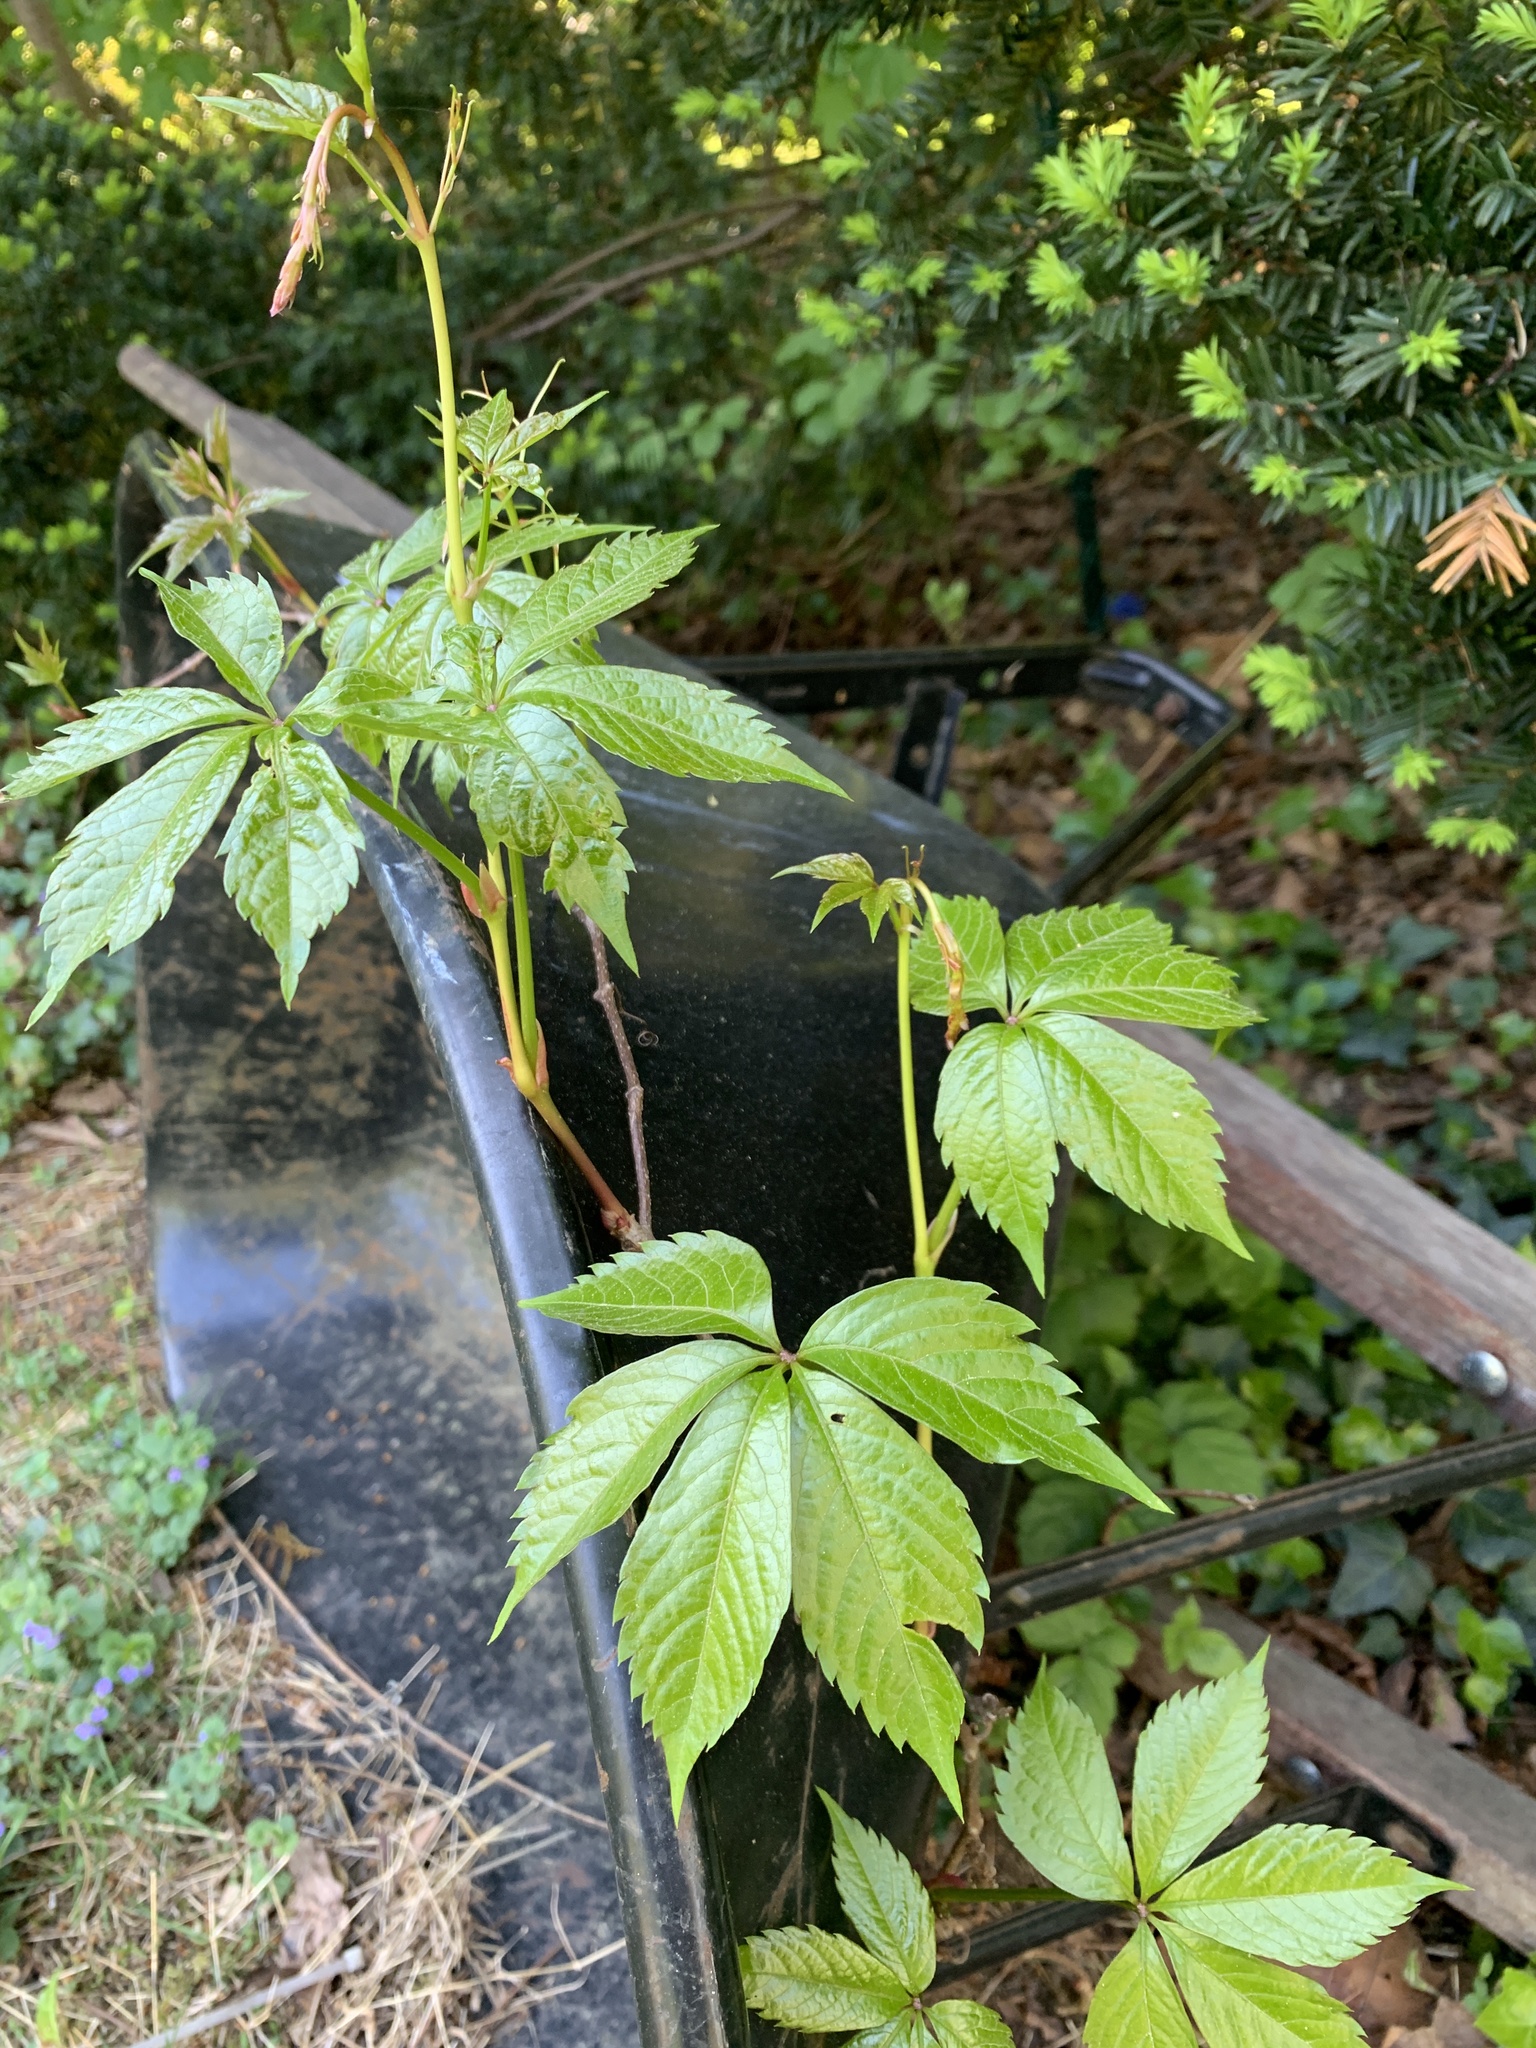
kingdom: Plantae
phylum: Tracheophyta
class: Magnoliopsida
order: Vitales
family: Vitaceae
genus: Parthenocissus
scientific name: Parthenocissus quinquefolia
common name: Virginia-creeper
